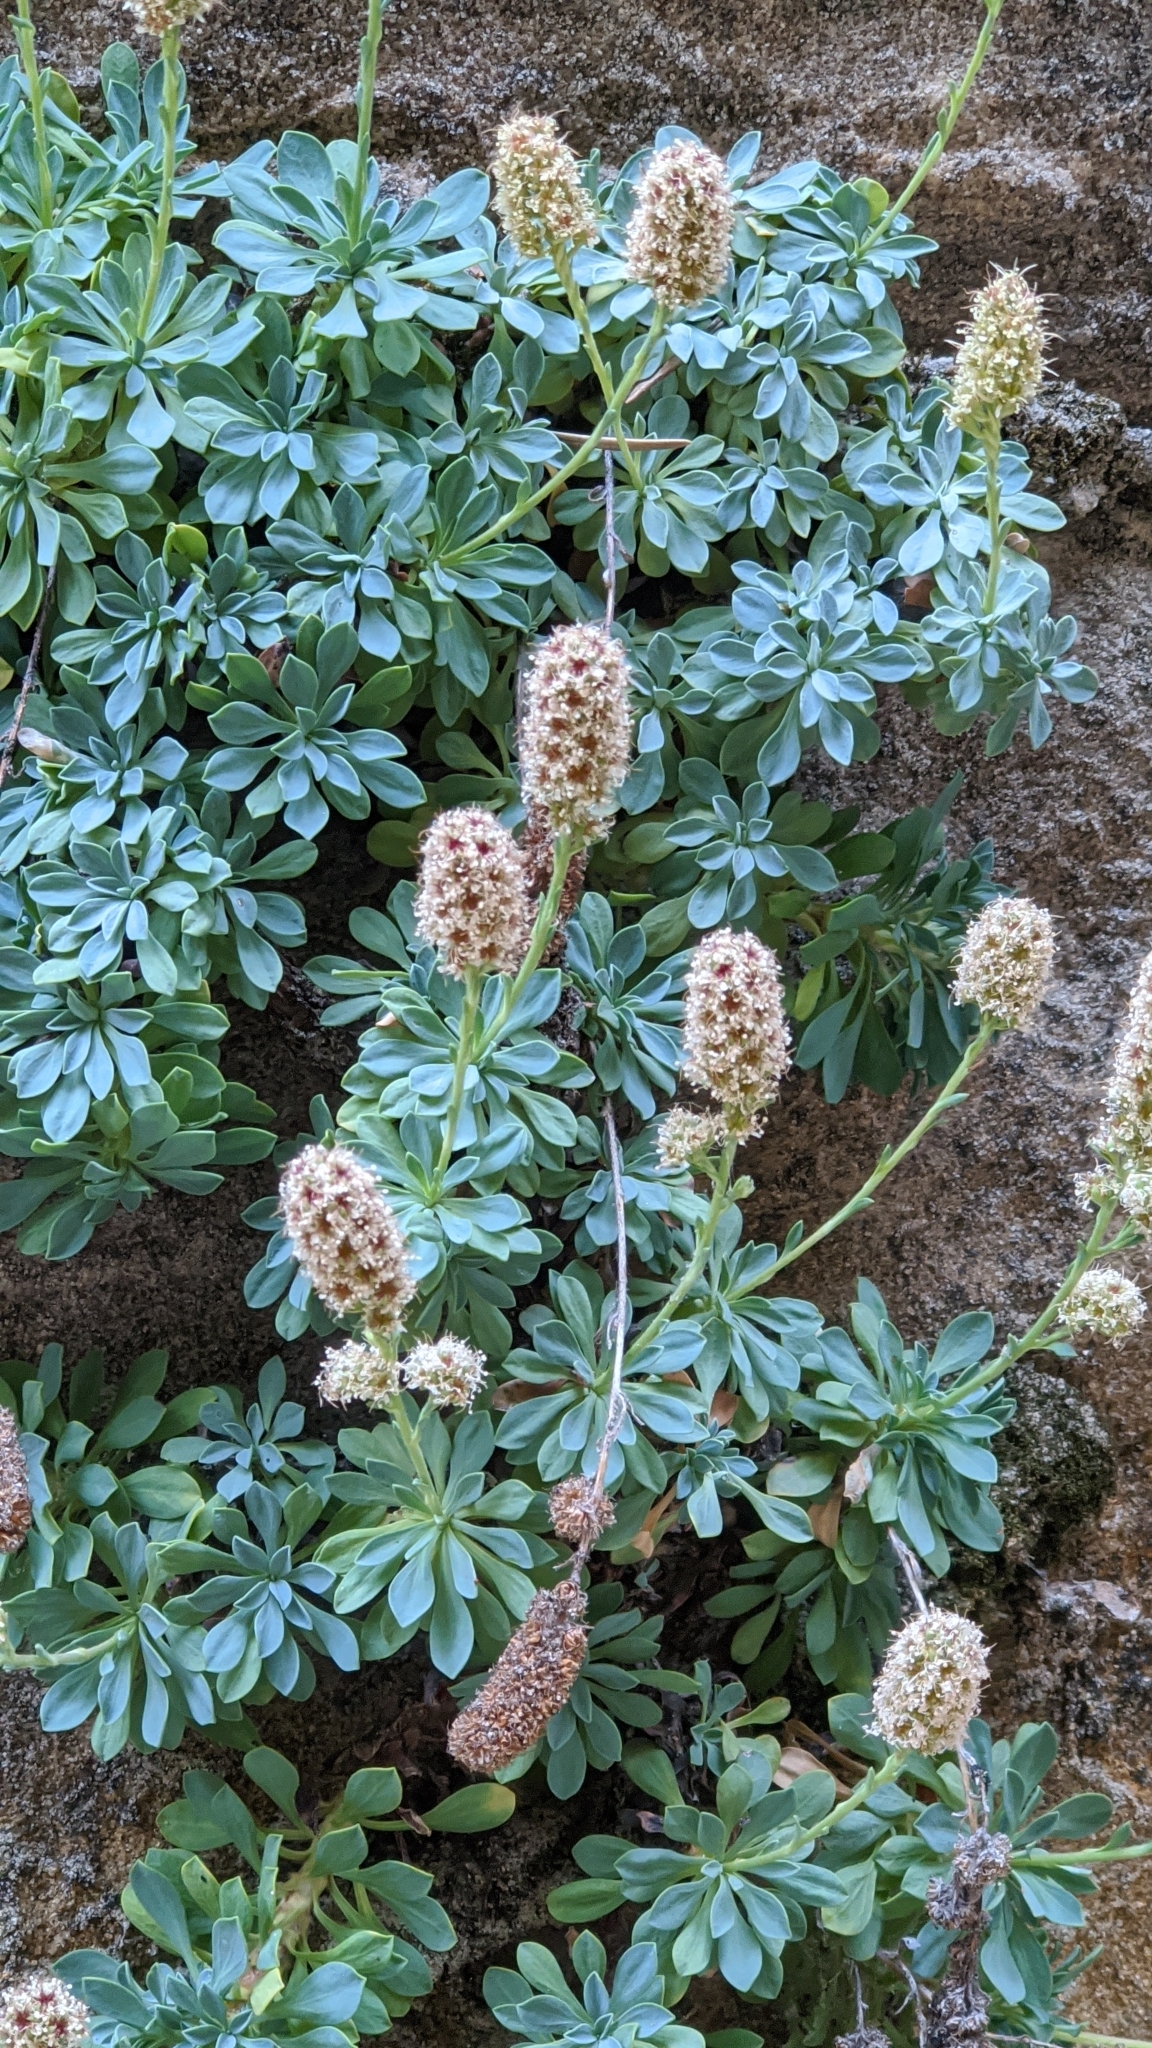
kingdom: Plantae
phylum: Tracheophyta
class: Magnoliopsida
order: Rosales
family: Rosaceae
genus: Petrophytum
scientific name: Petrophytum caespitosum
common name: Mat rockspirea
